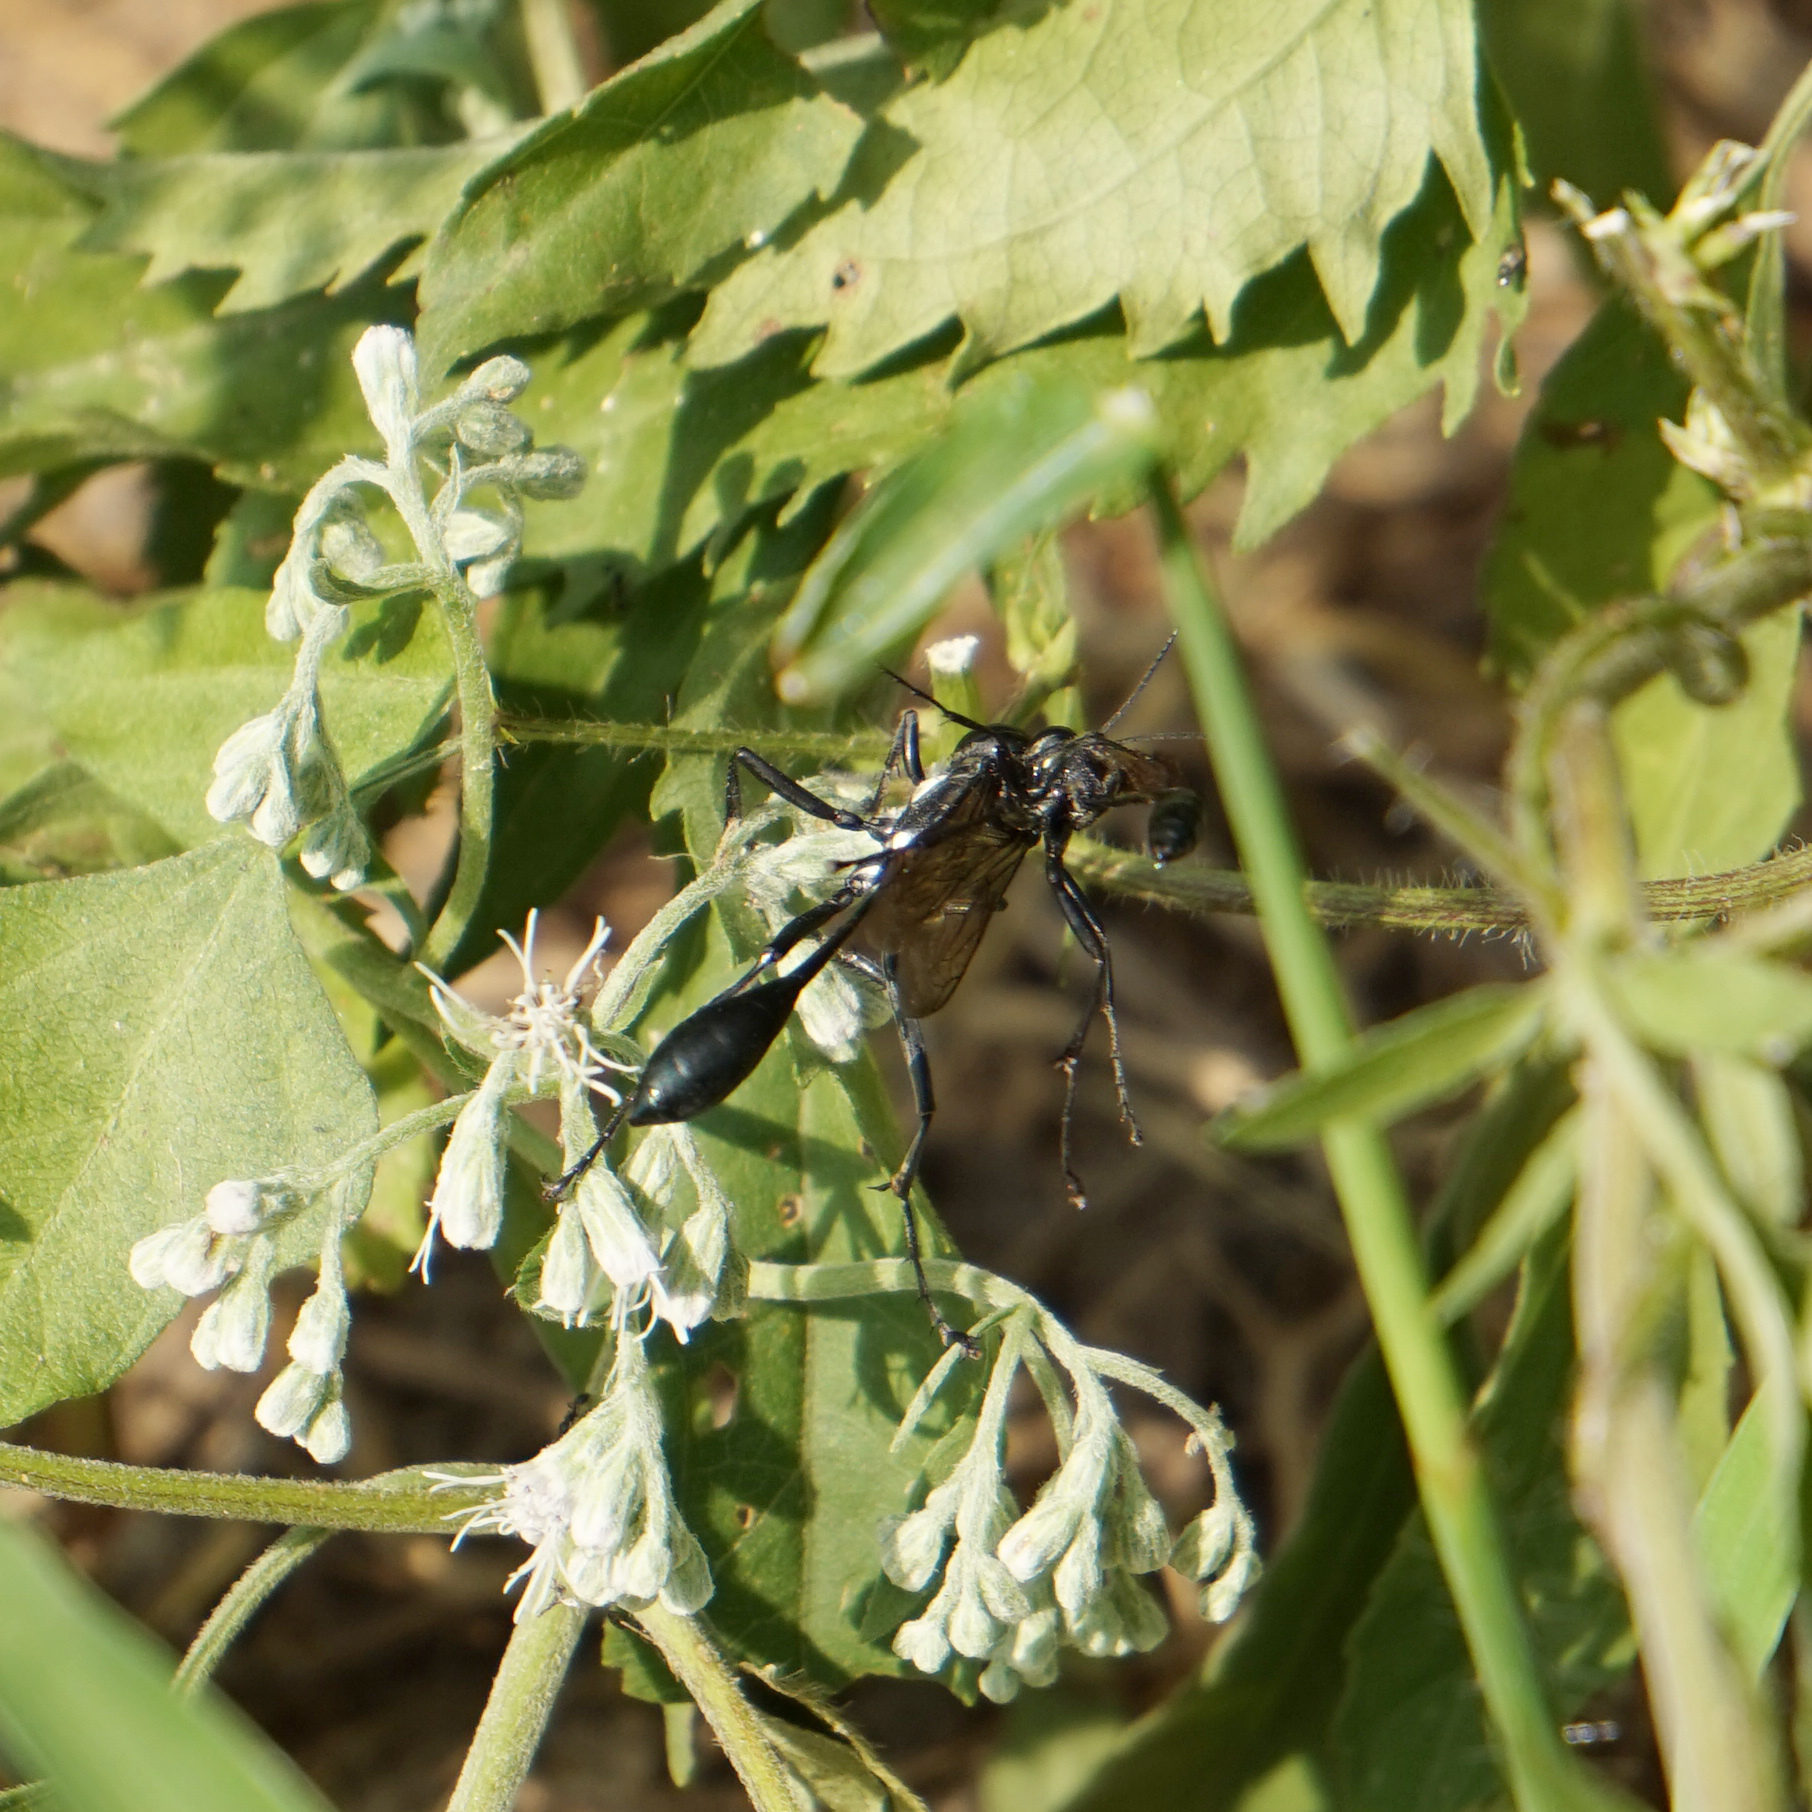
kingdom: Animalia
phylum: Arthropoda
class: Insecta
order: Hymenoptera
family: Sphecidae
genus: Eremnophila
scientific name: Eremnophila aureonotata
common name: Gold-marked thread-waisted wasp
